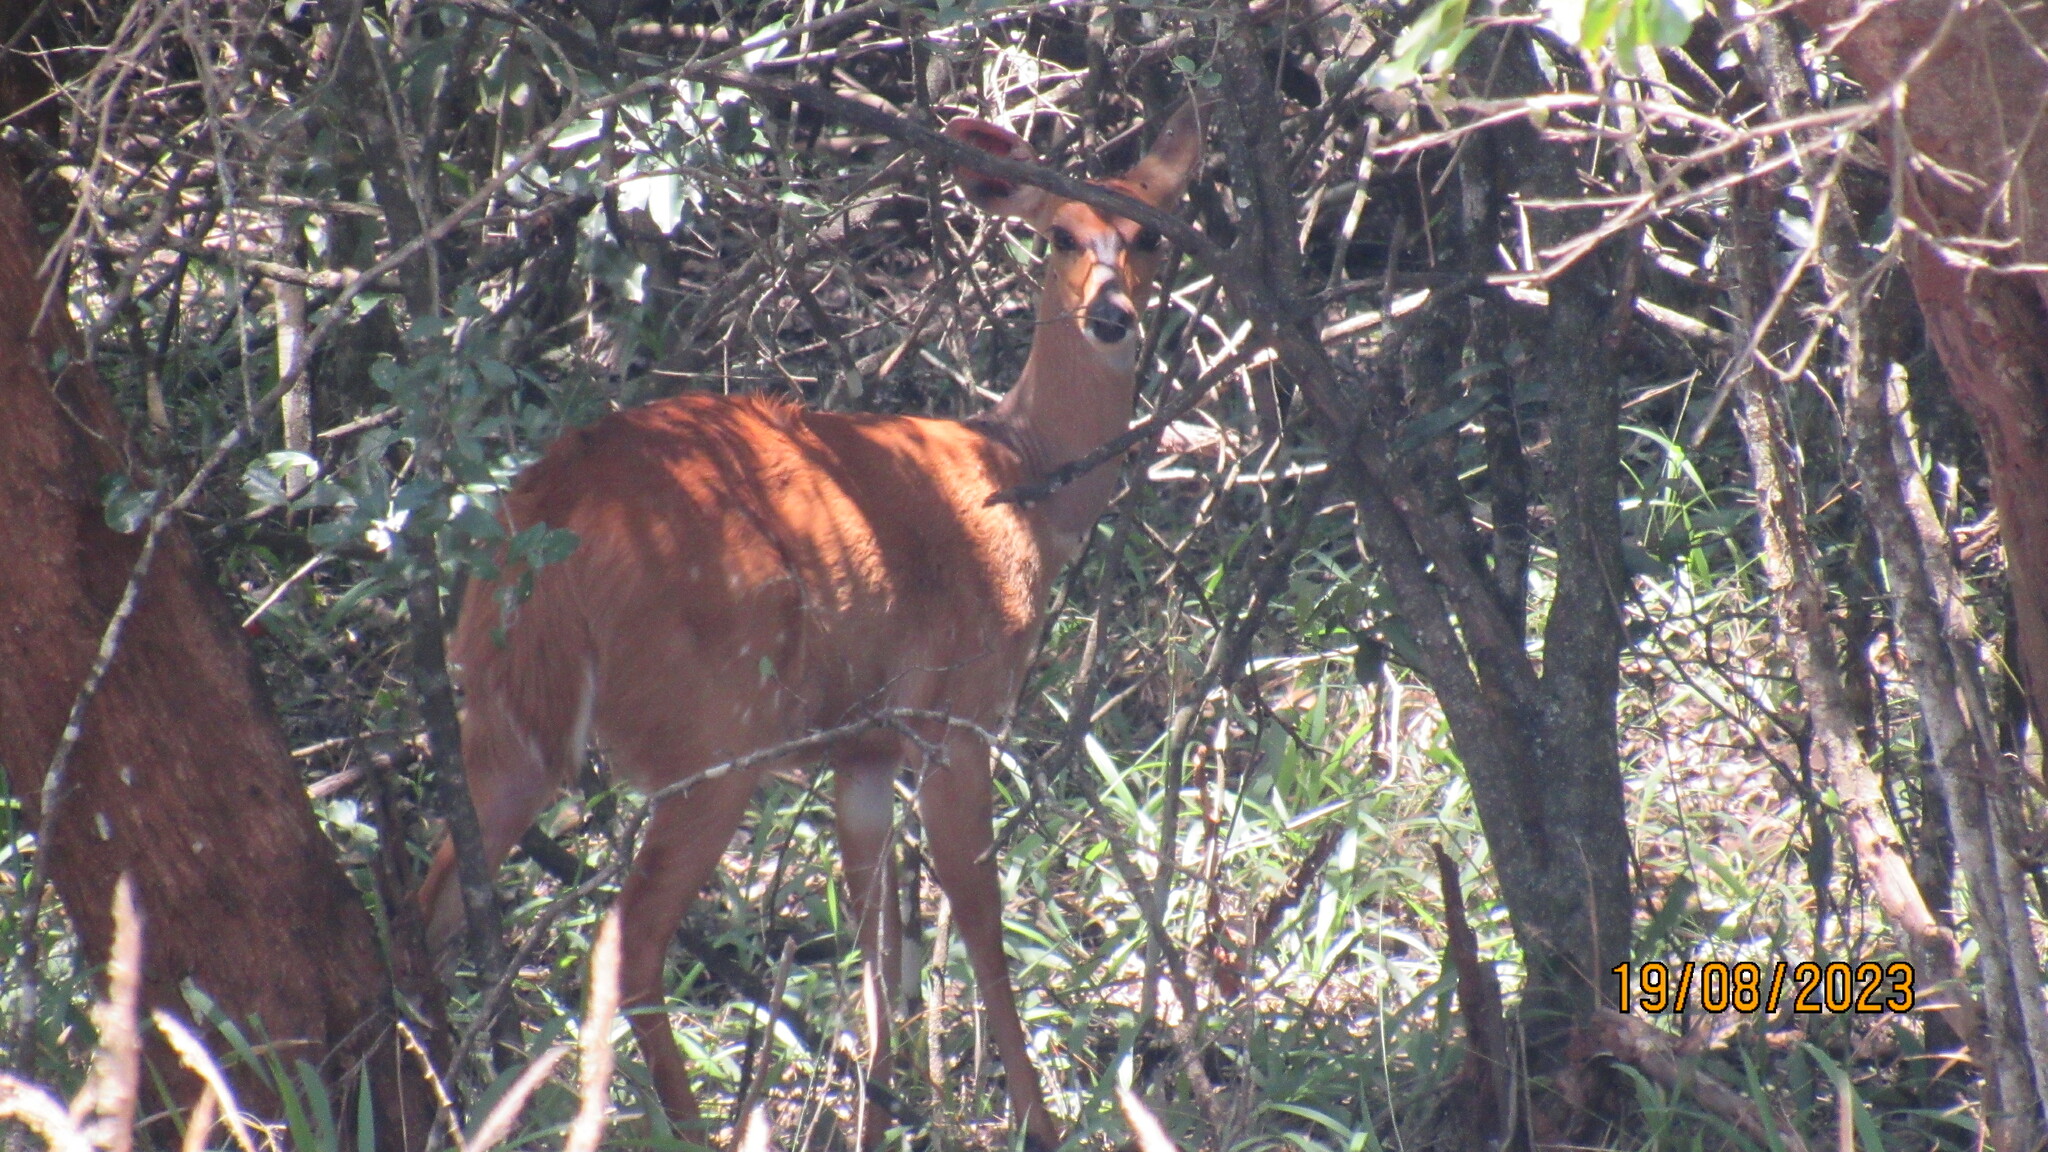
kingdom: Animalia
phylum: Chordata
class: Mammalia
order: Artiodactyla
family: Bovidae
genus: Tragelaphus
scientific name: Tragelaphus scriptus
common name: Bushbuck
